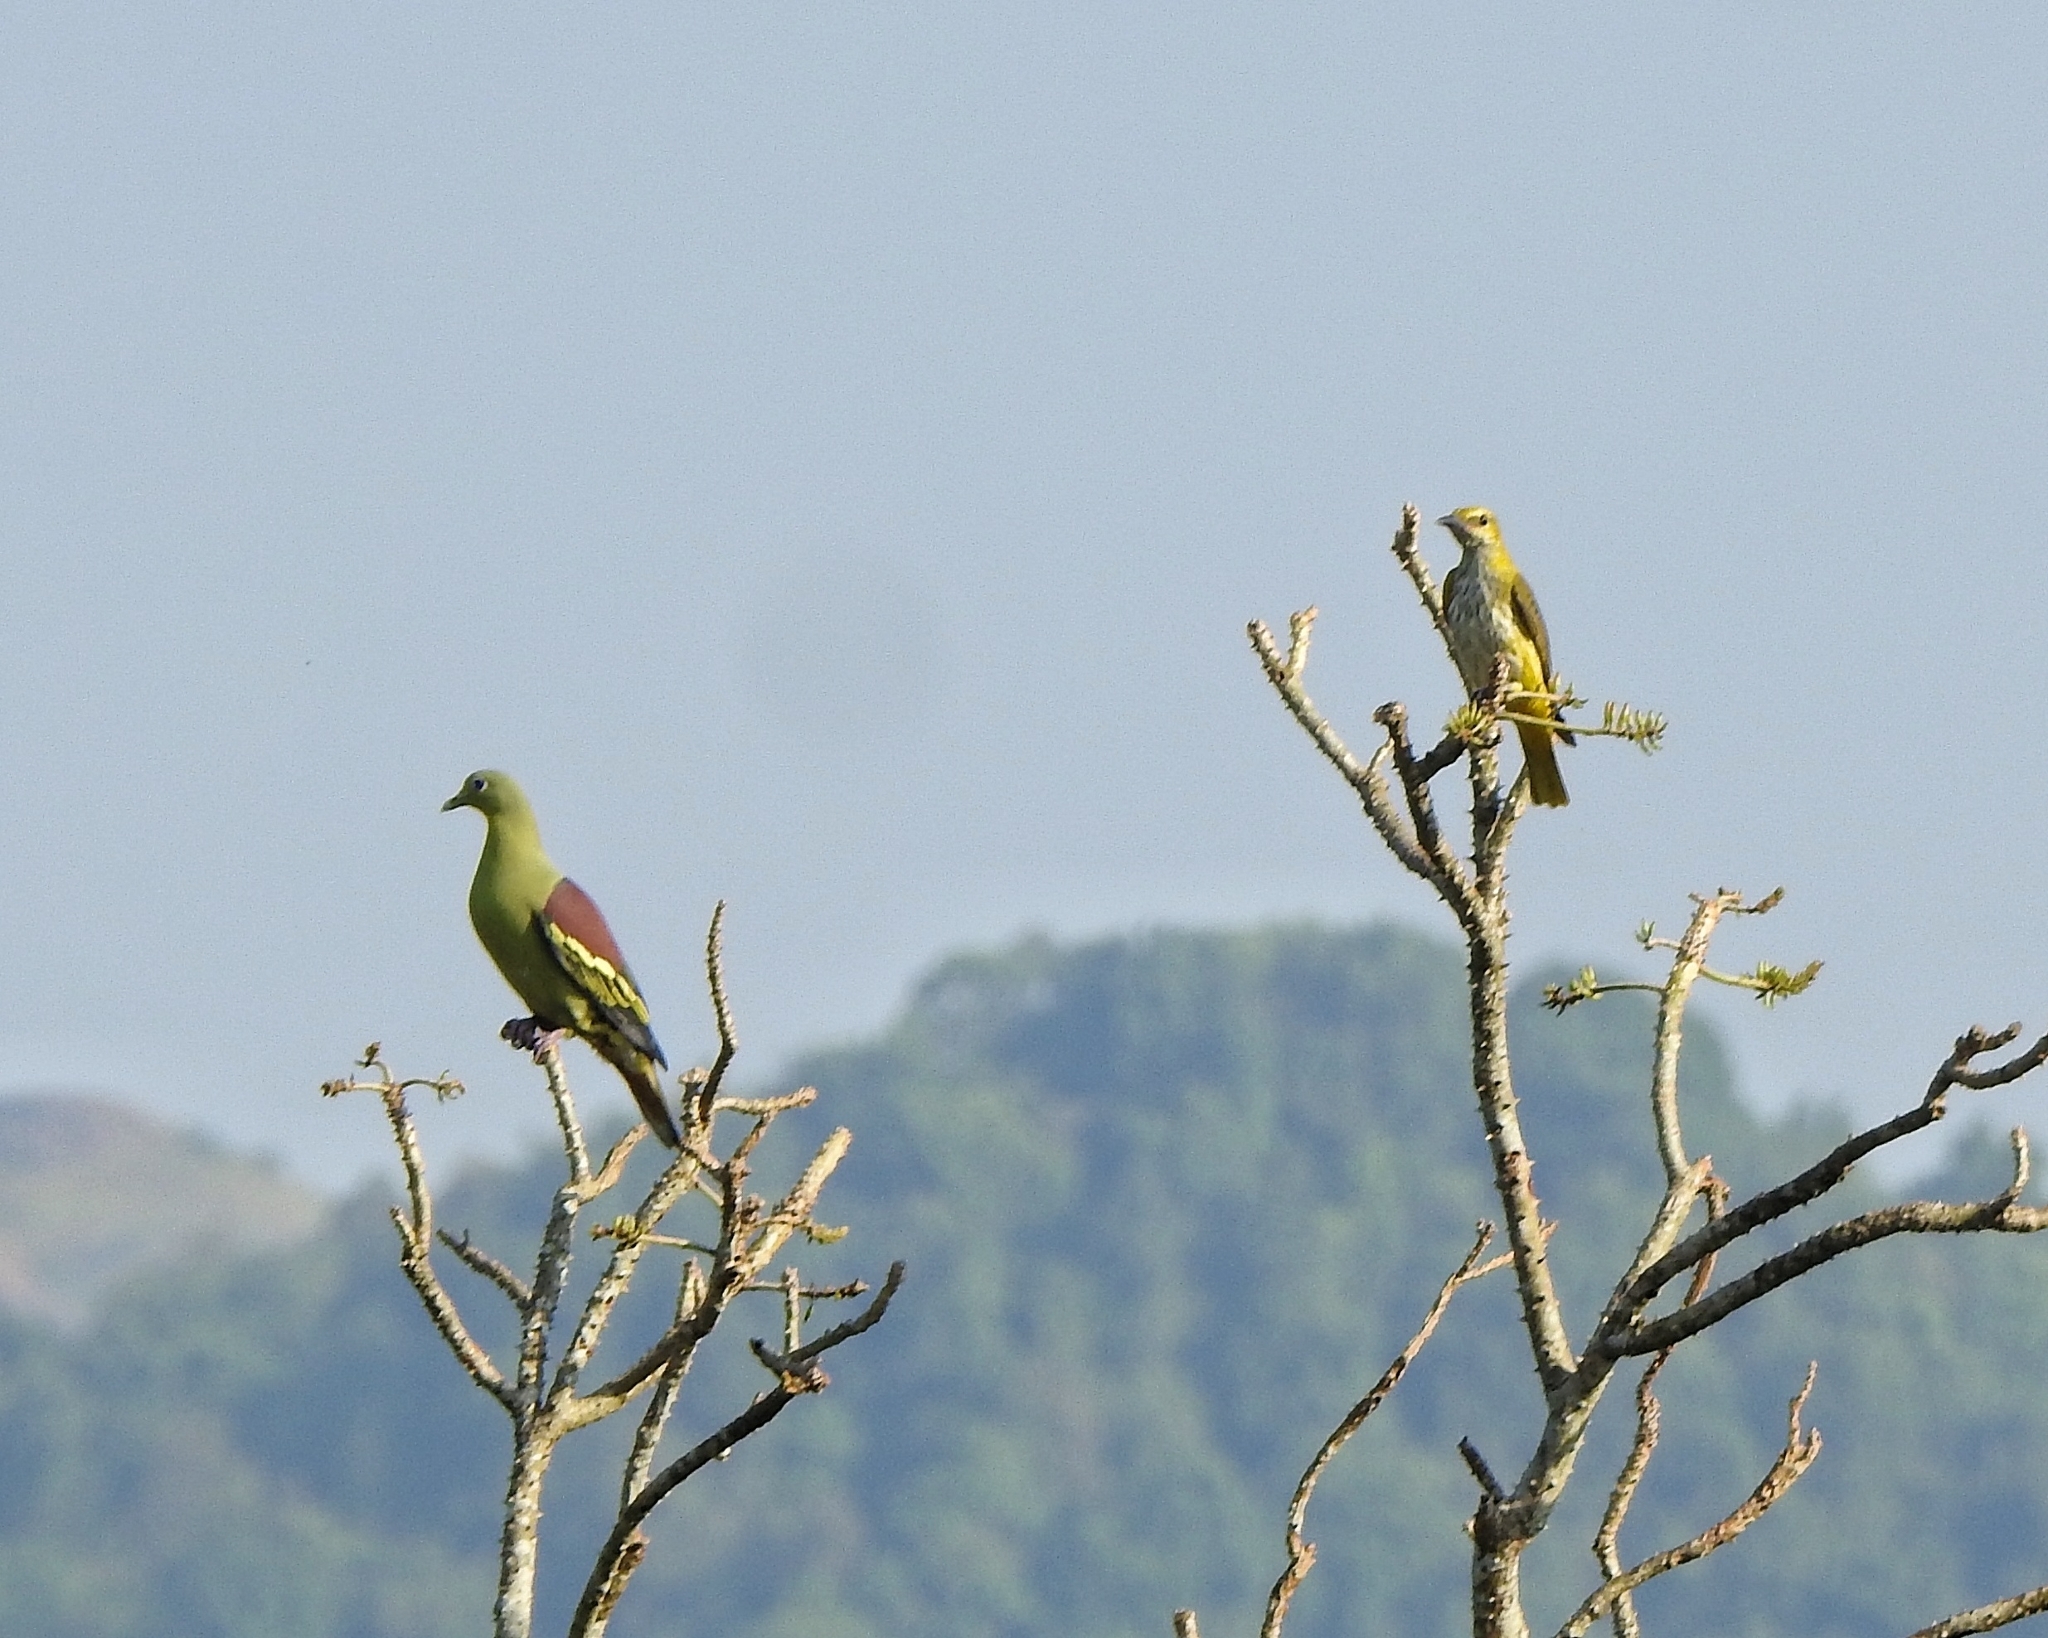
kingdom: Animalia
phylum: Chordata
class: Aves
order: Columbiformes
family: Columbidae
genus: Treron
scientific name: Treron affinis
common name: Grey-fronted green pigeon
